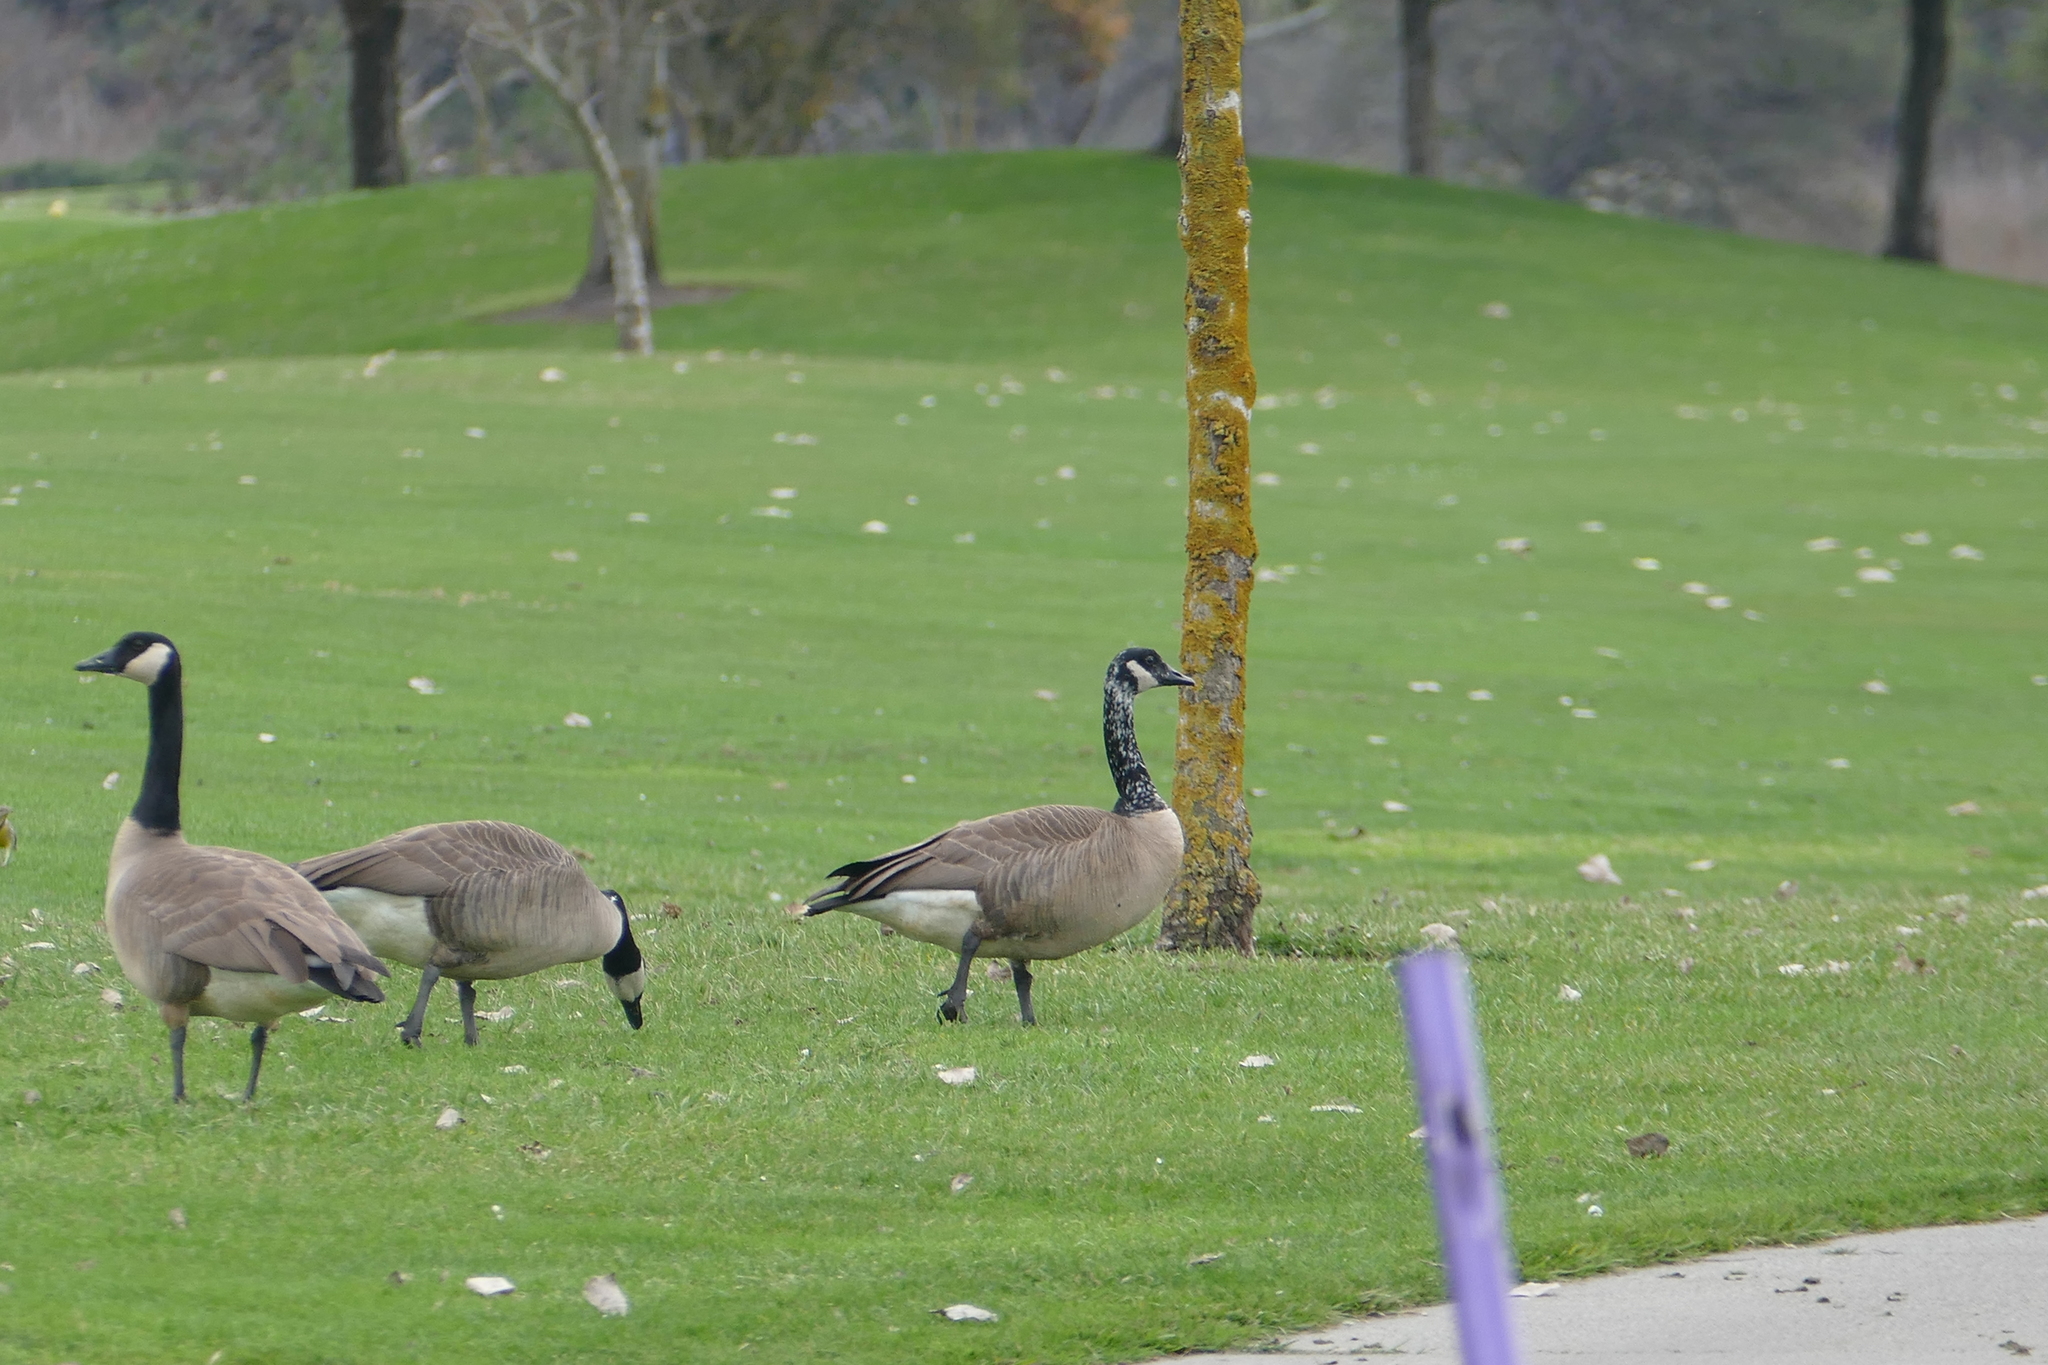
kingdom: Animalia
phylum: Chordata
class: Aves
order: Anseriformes
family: Anatidae
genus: Branta
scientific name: Branta canadensis
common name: Canada goose
